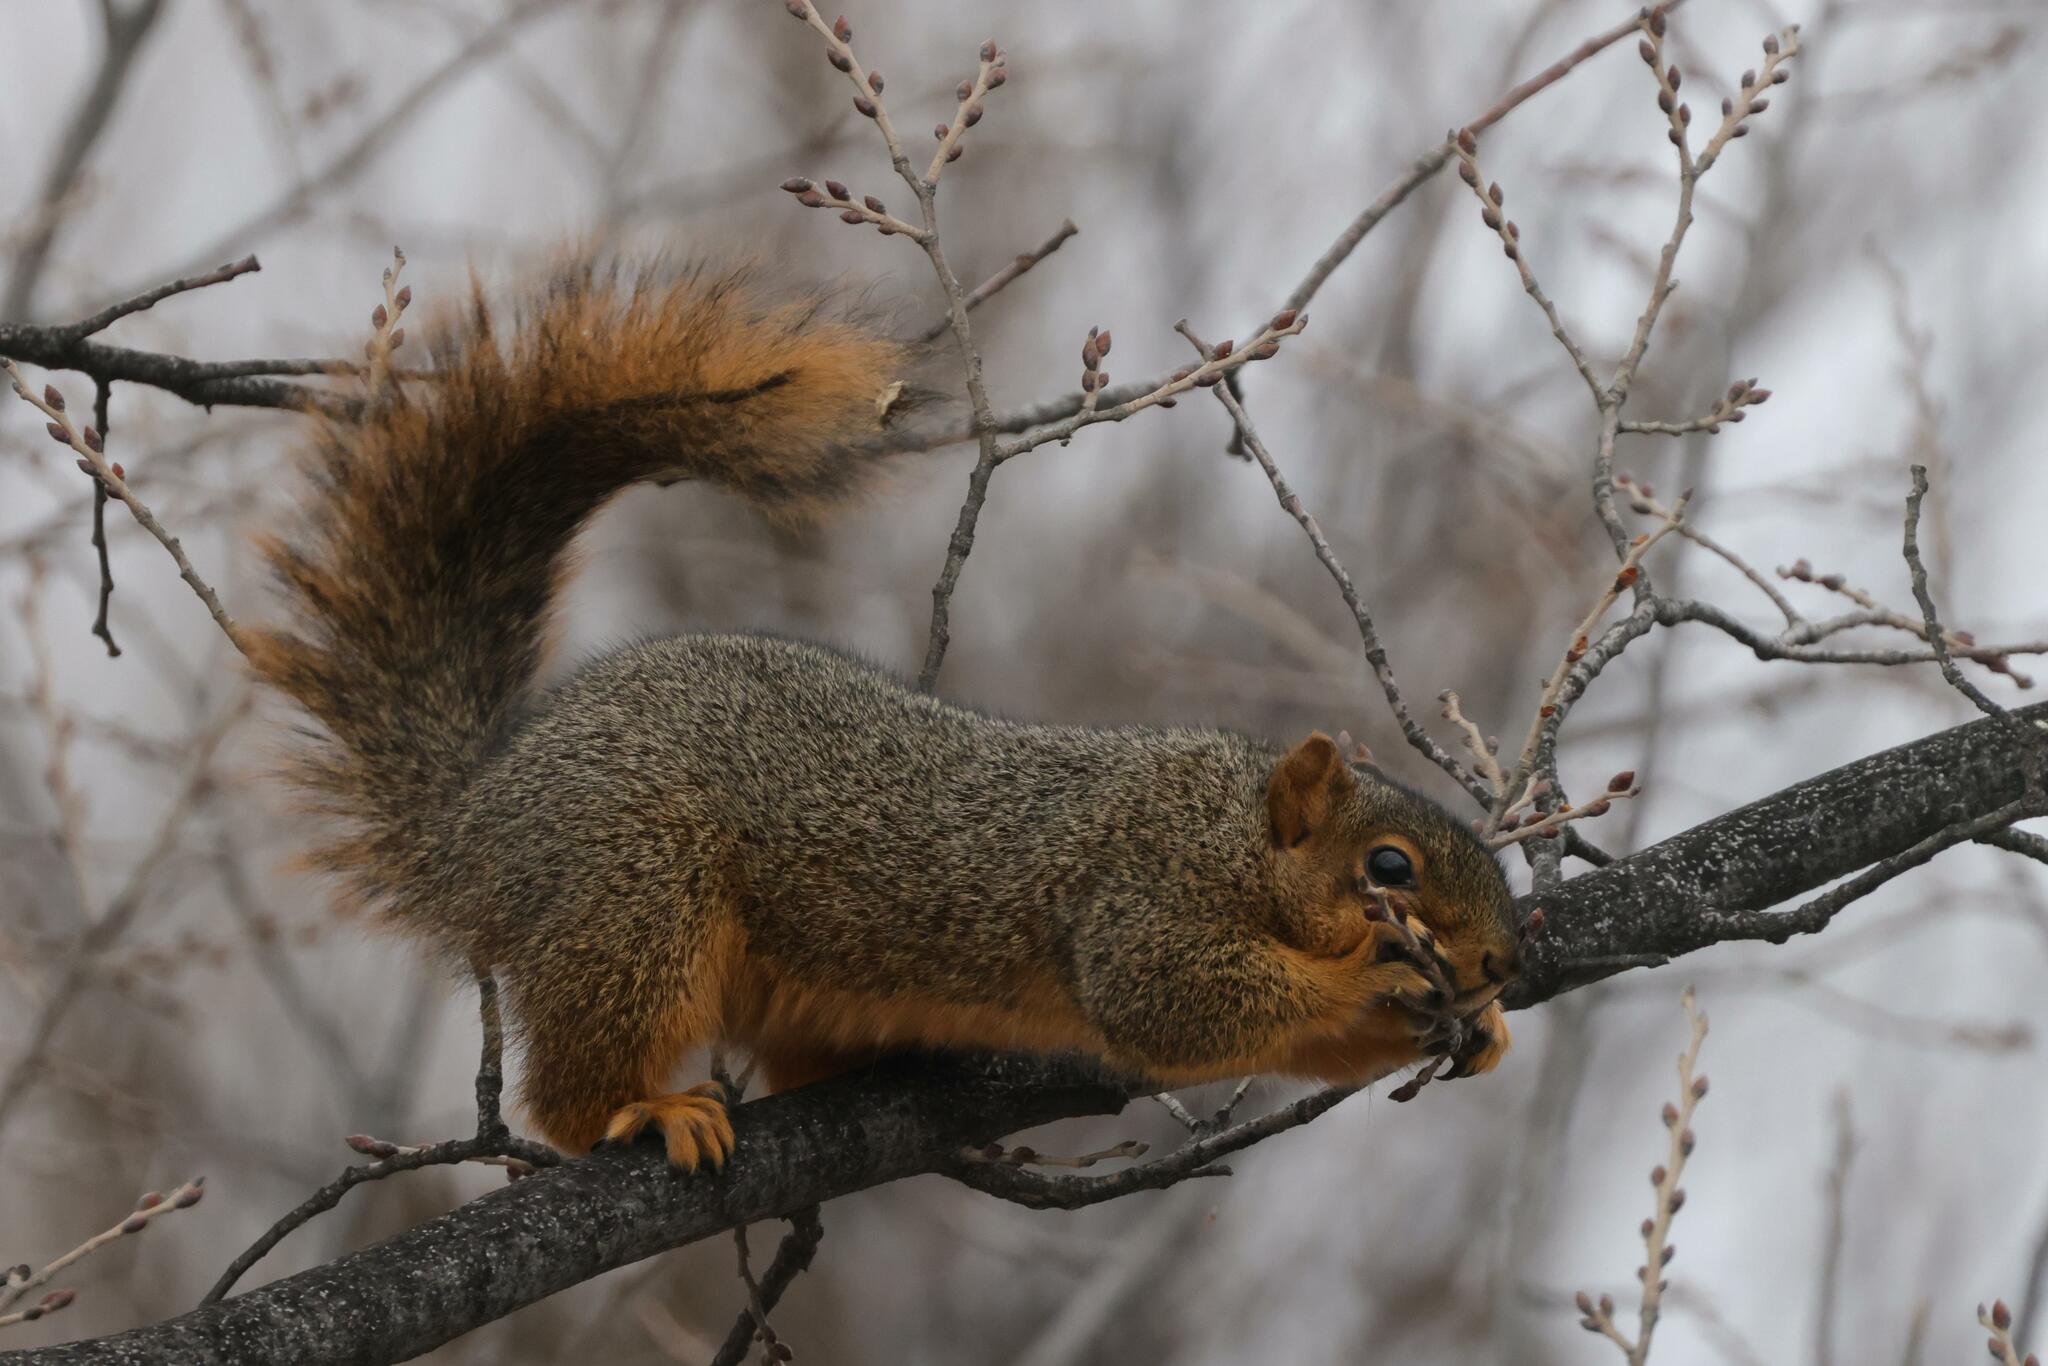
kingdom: Animalia
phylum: Chordata
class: Mammalia
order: Rodentia
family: Sciuridae
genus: Sciurus
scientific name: Sciurus niger
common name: Fox squirrel
